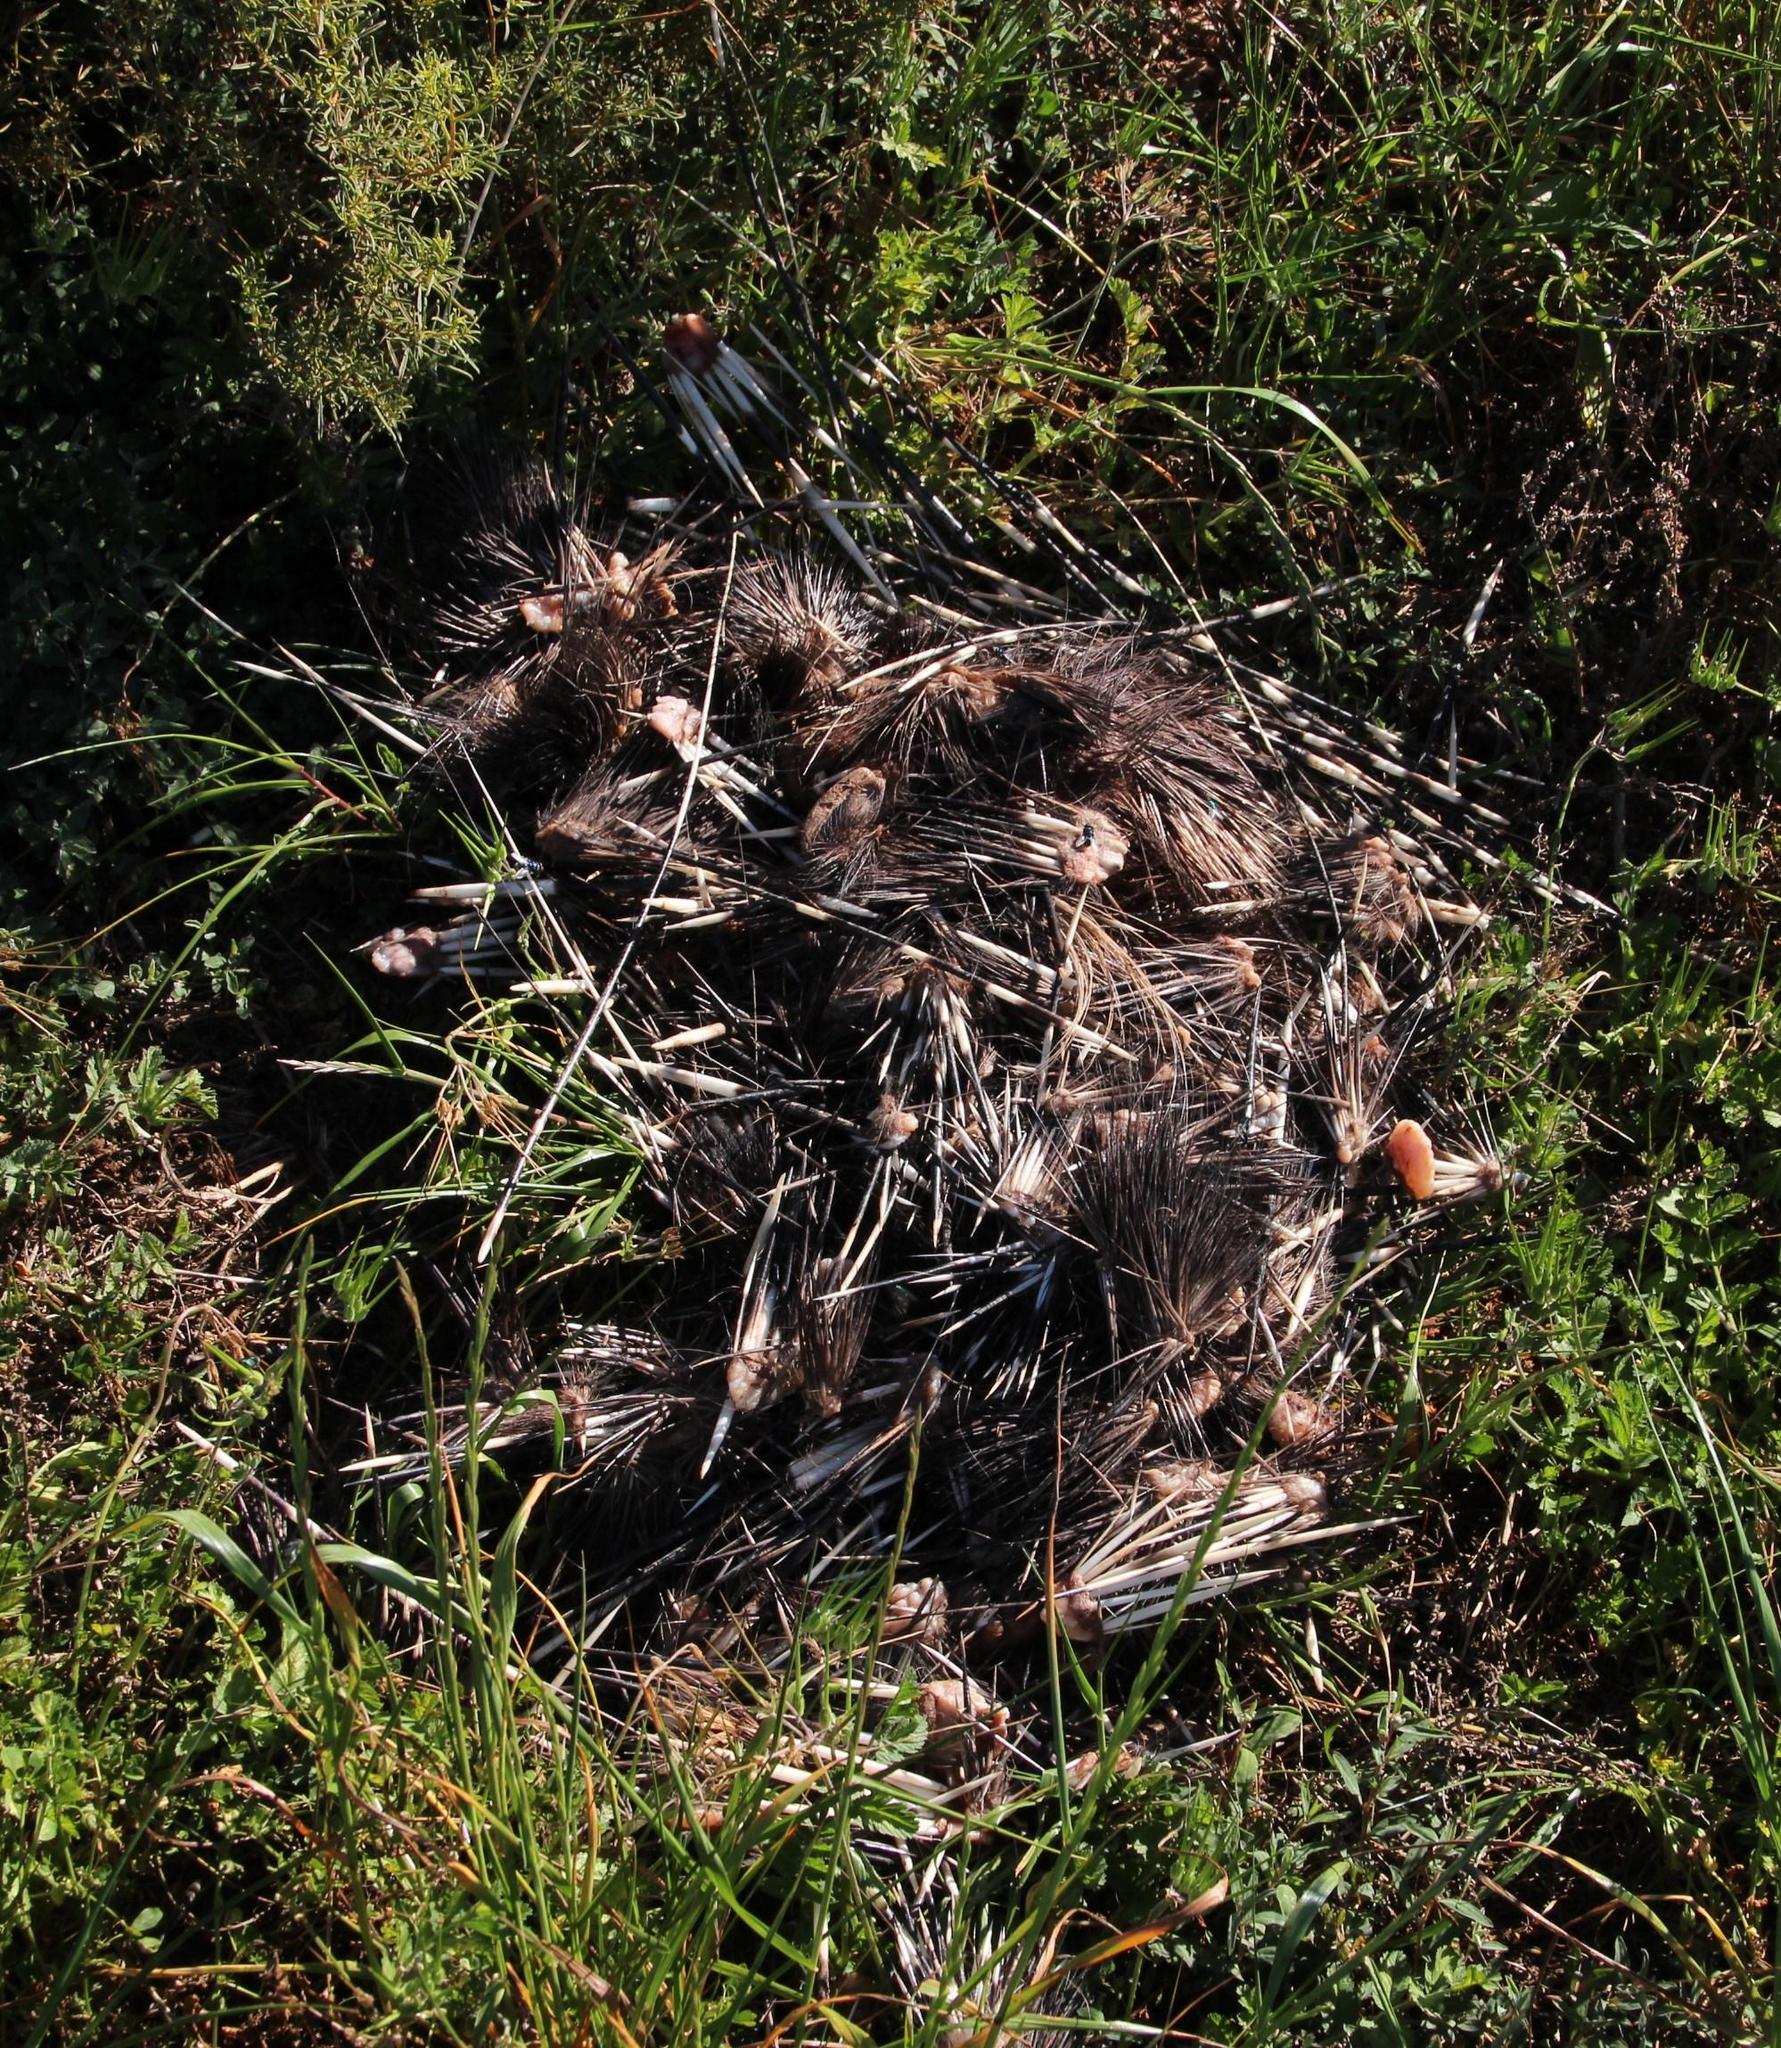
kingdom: Animalia
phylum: Chordata
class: Mammalia
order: Rodentia
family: Hystricidae
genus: Hystrix
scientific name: Hystrix africaeaustralis
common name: Cape porcupine
